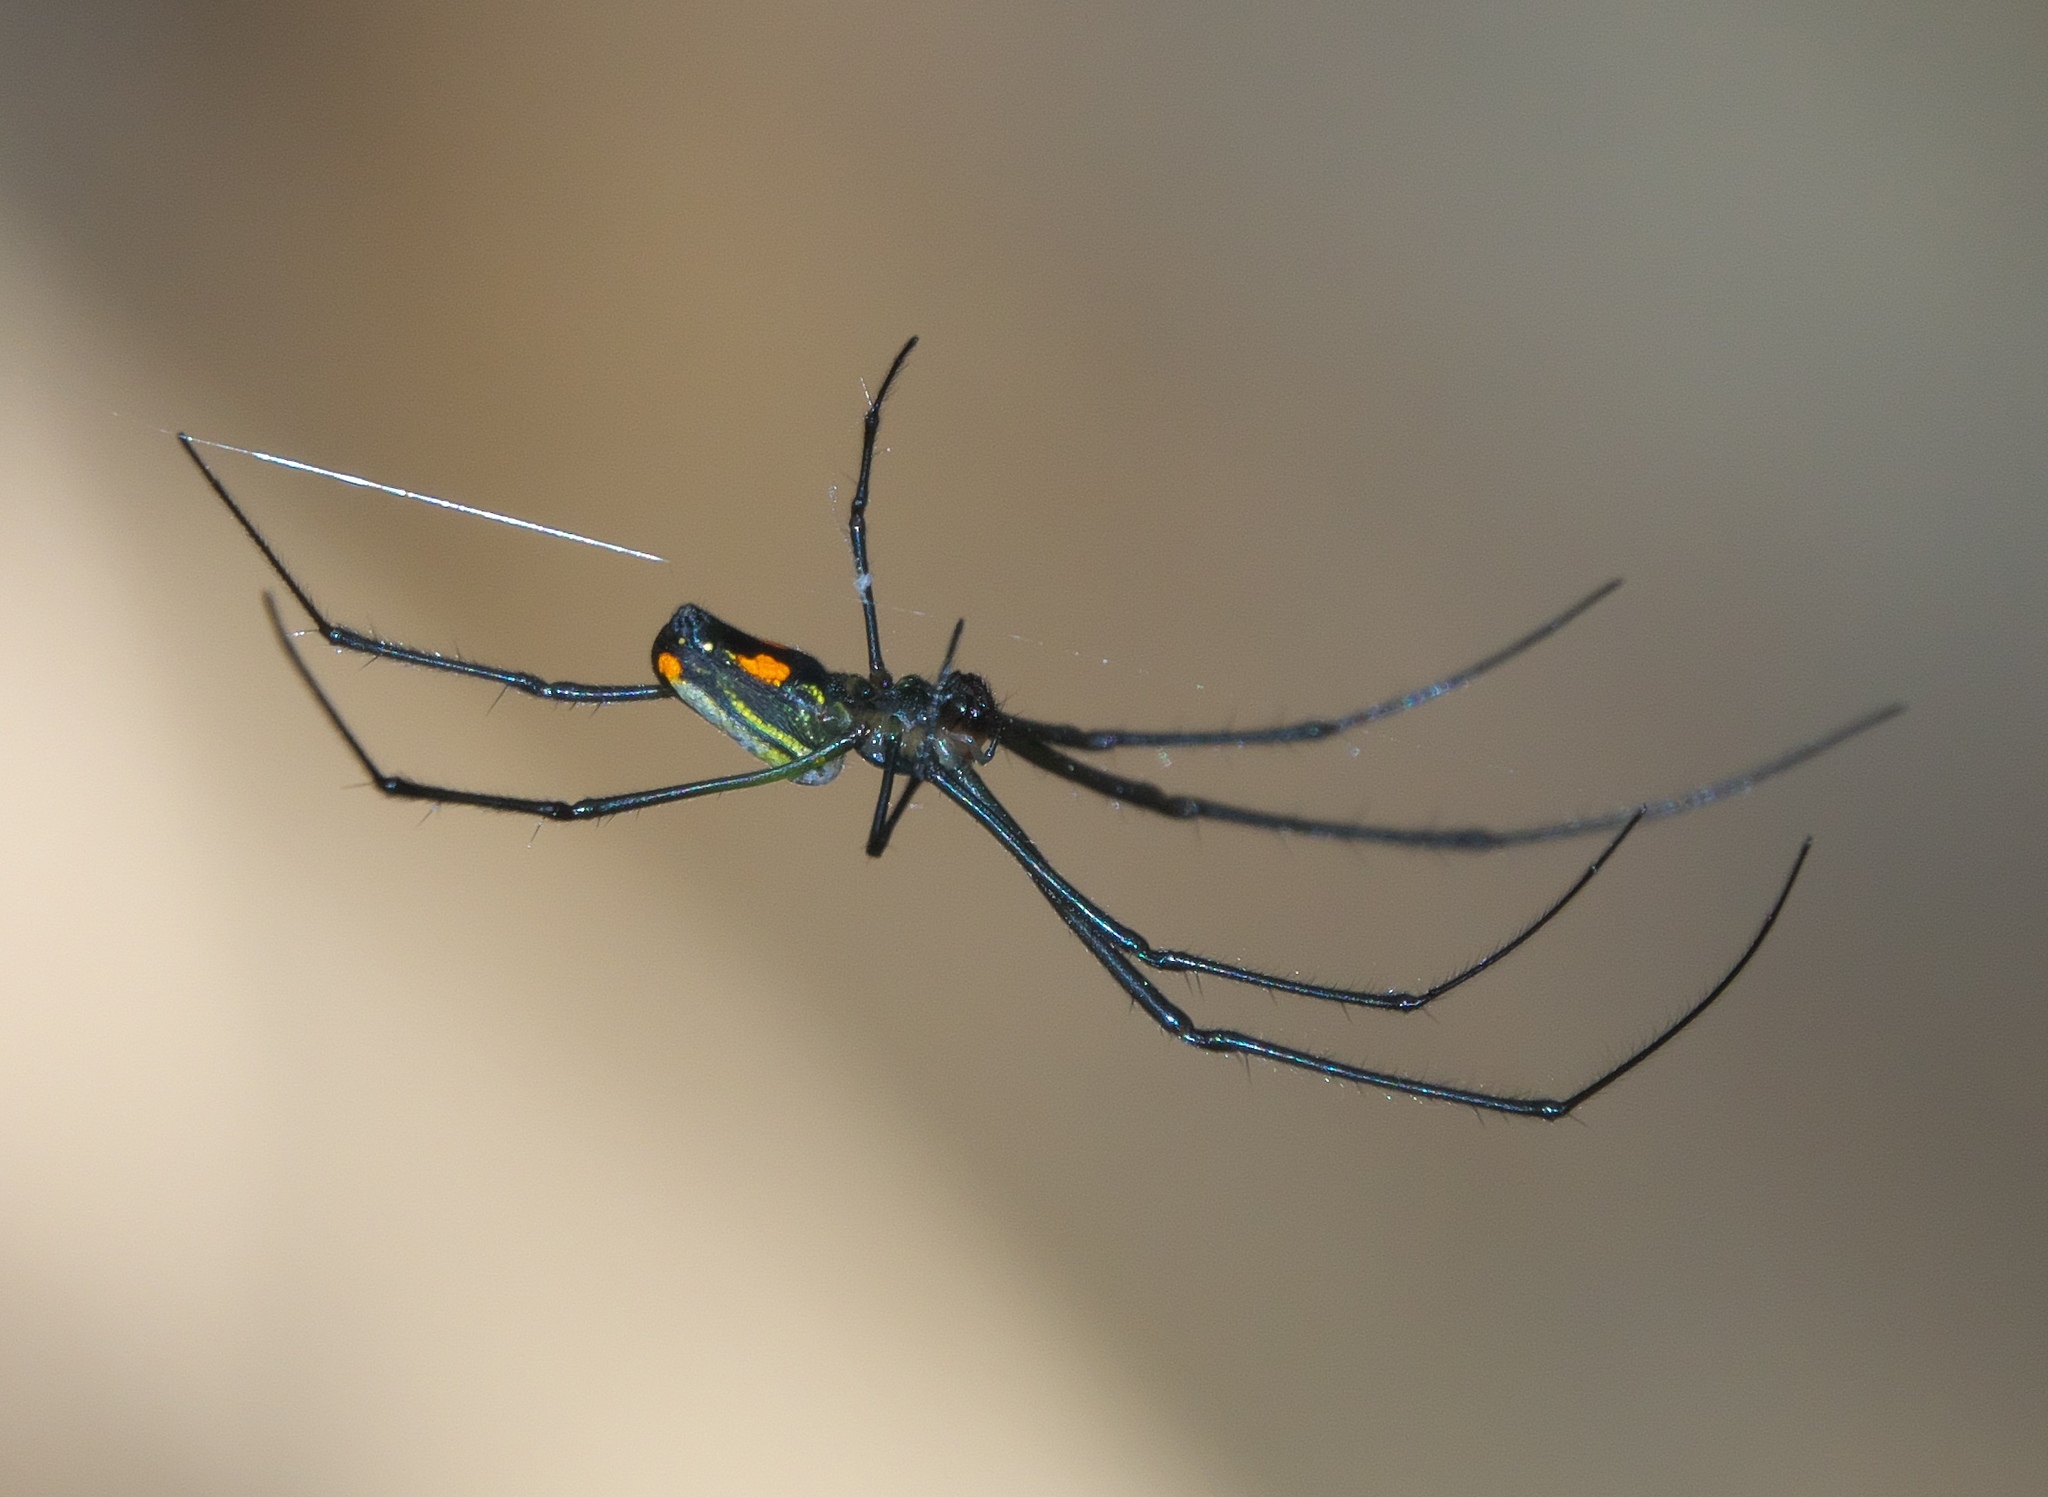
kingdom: Animalia
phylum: Arthropoda
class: Arachnida
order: Araneae
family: Tetragnathidae
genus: Leucauge
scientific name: Leucauge hebridisiana
